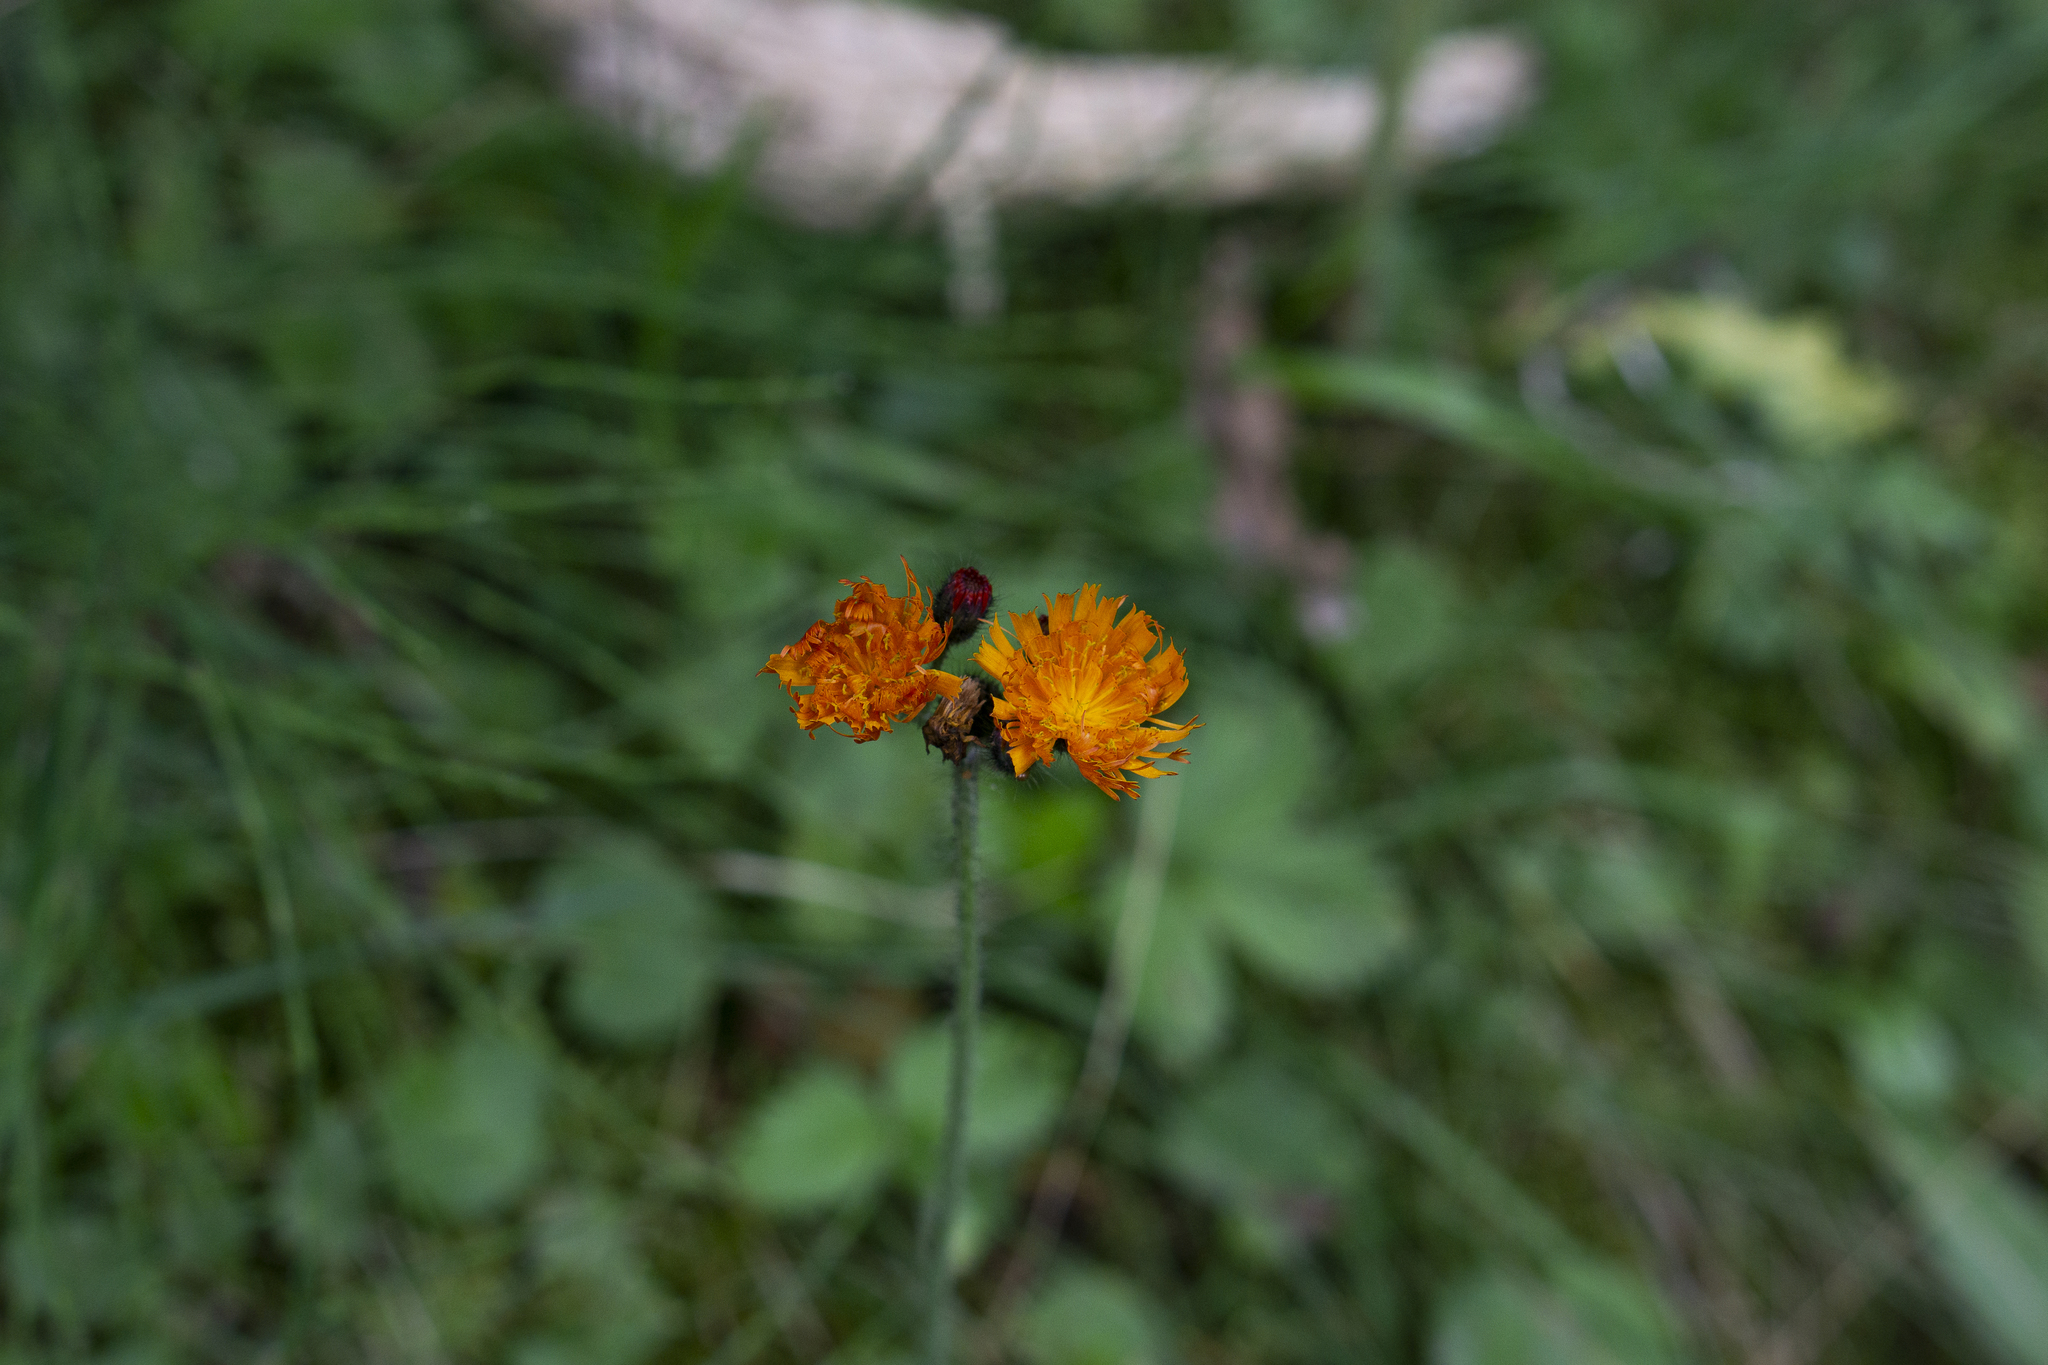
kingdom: Plantae
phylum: Tracheophyta
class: Magnoliopsida
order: Asterales
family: Asteraceae
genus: Pilosella
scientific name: Pilosella aurantiaca
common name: Fox-and-cubs
